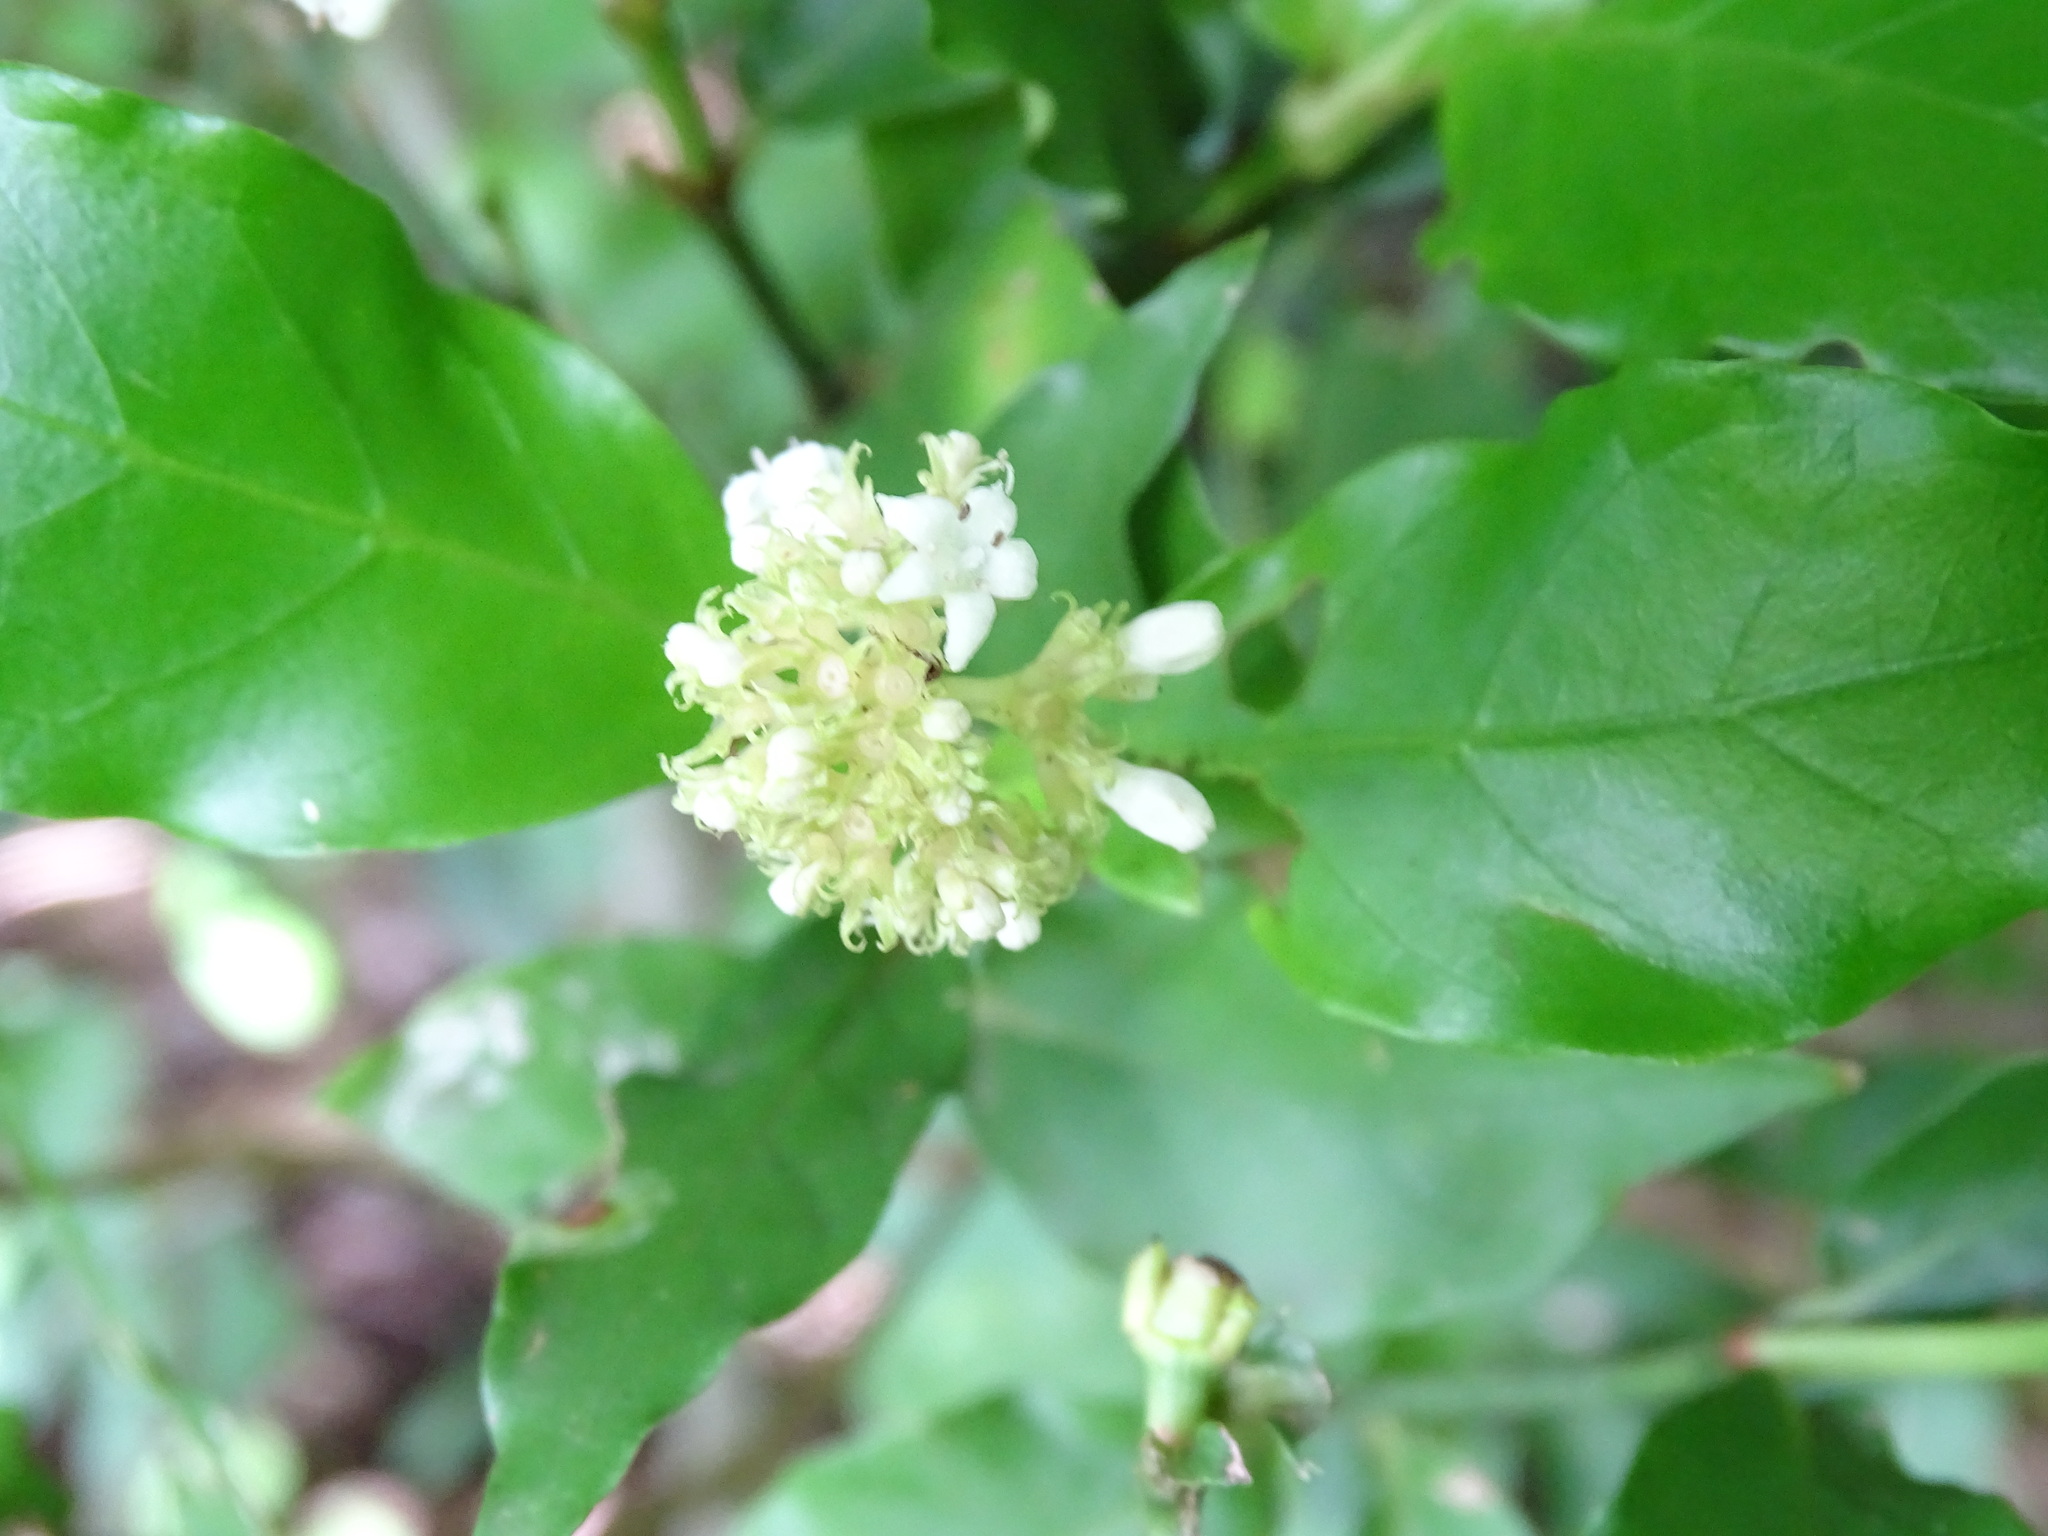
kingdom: Plantae
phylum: Tracheophyta
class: Magnoliopsida
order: Gentianales
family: Rubiaceae
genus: Psychotria
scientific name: Psychotria horizontalis
